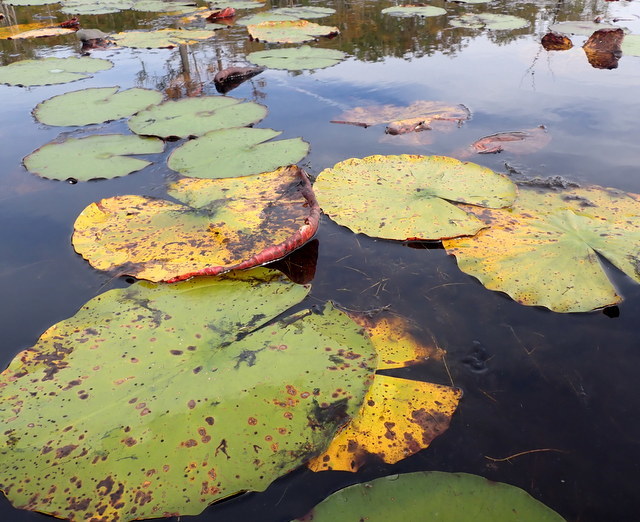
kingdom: Plantae
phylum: Tracheophyta
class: Magnoliopsida
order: Nymphaeales
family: Nymphaeaceae
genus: Nymphaea
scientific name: Nymphaea odorata
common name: Fragrant water-lily
